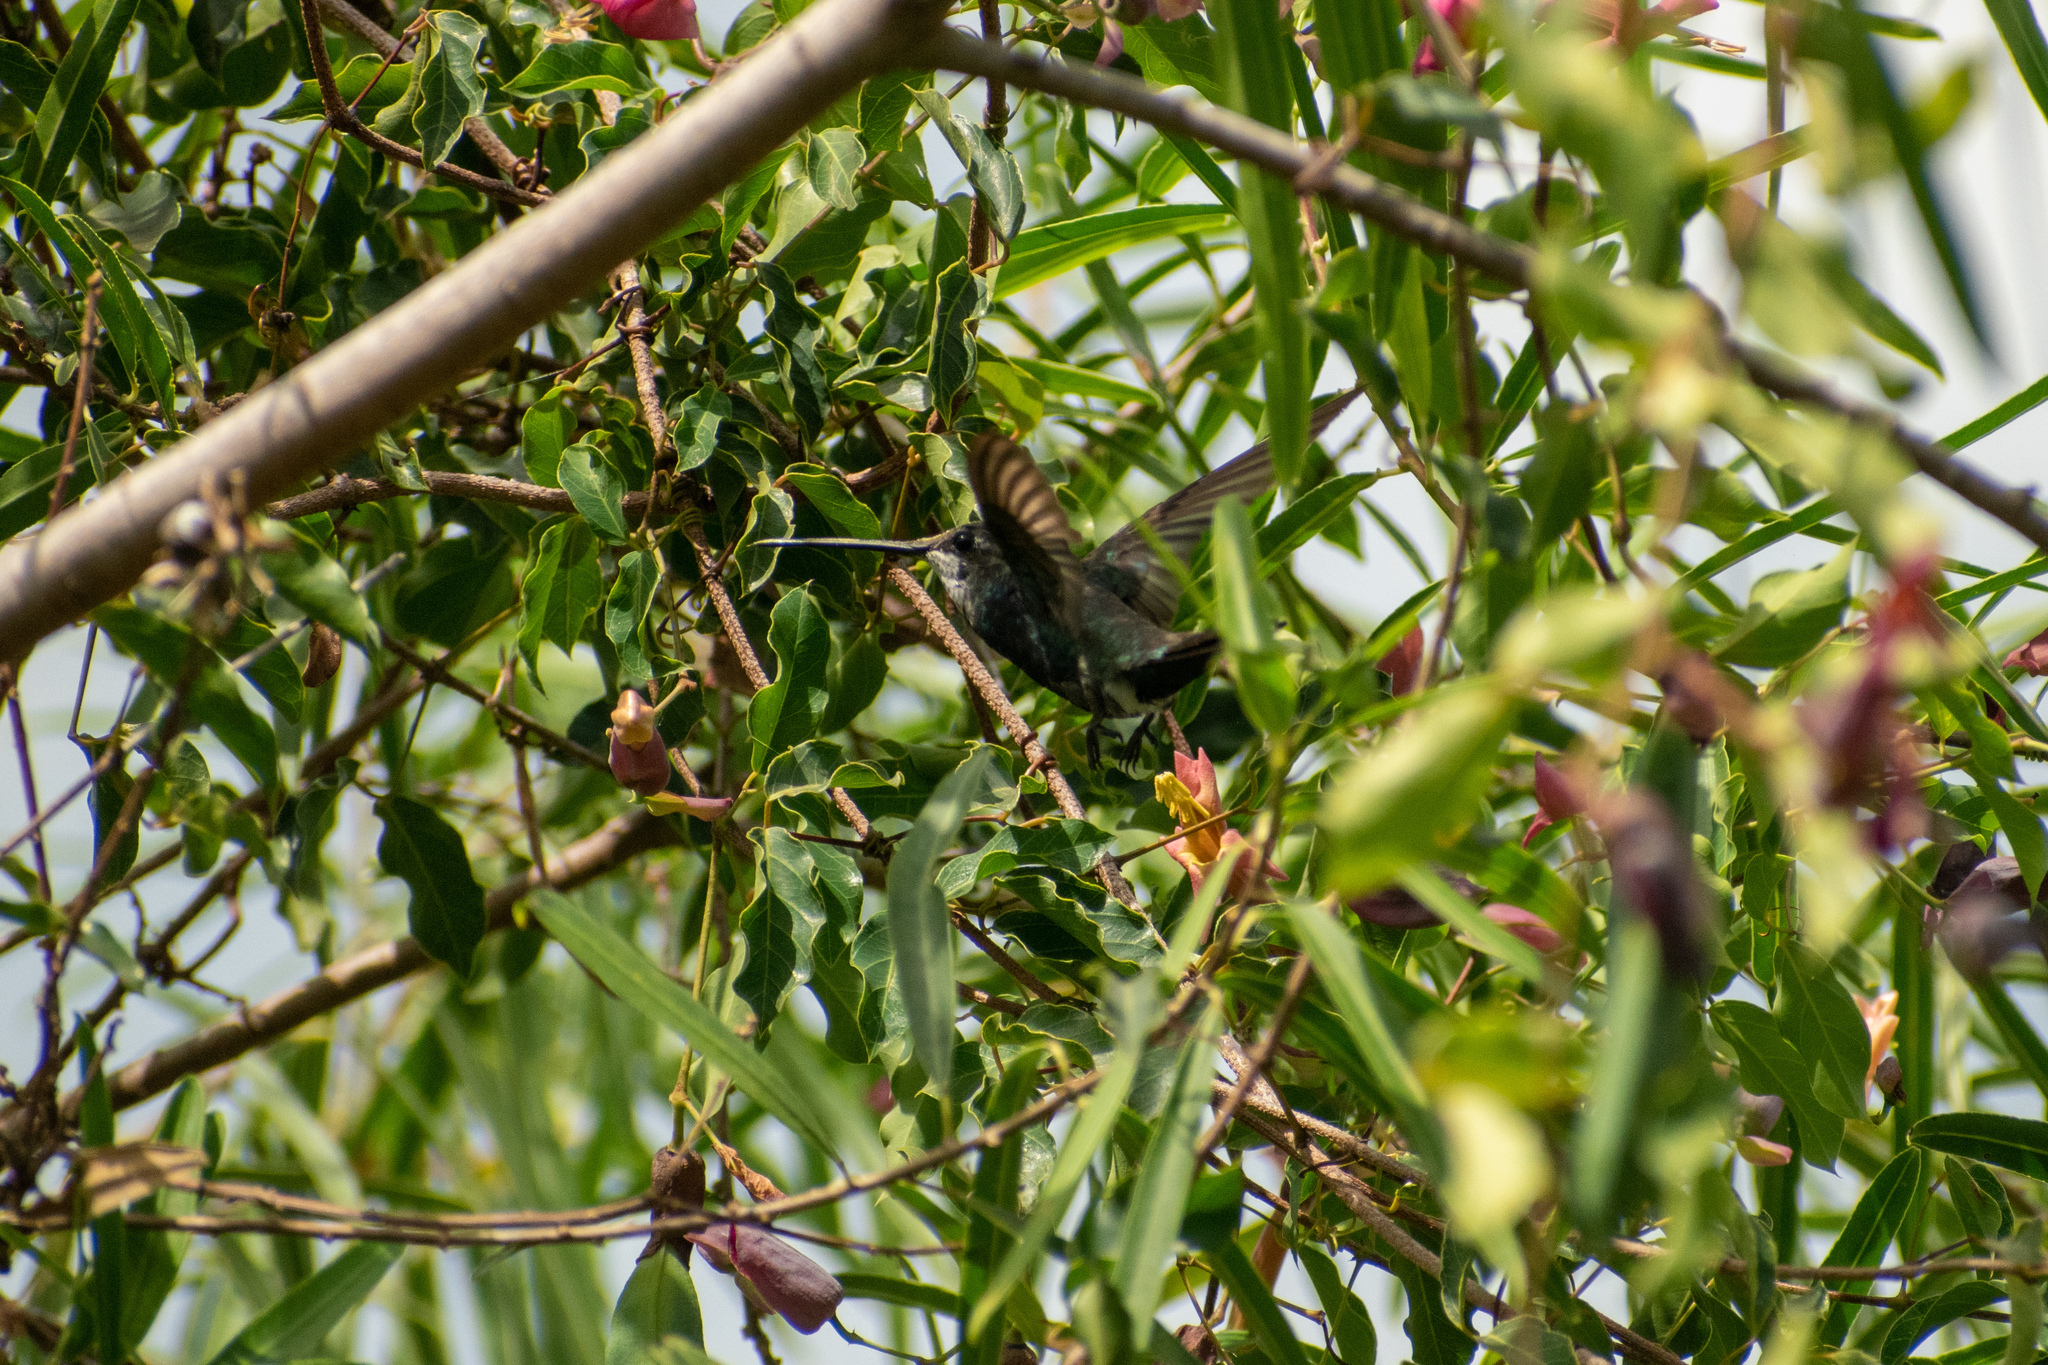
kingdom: Animalia
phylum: Chordata
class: Aves
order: Apodiformes
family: Trochilidae
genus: Heliomaster
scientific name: Heliomaster furcifer
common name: Blue-tufted starthroat
